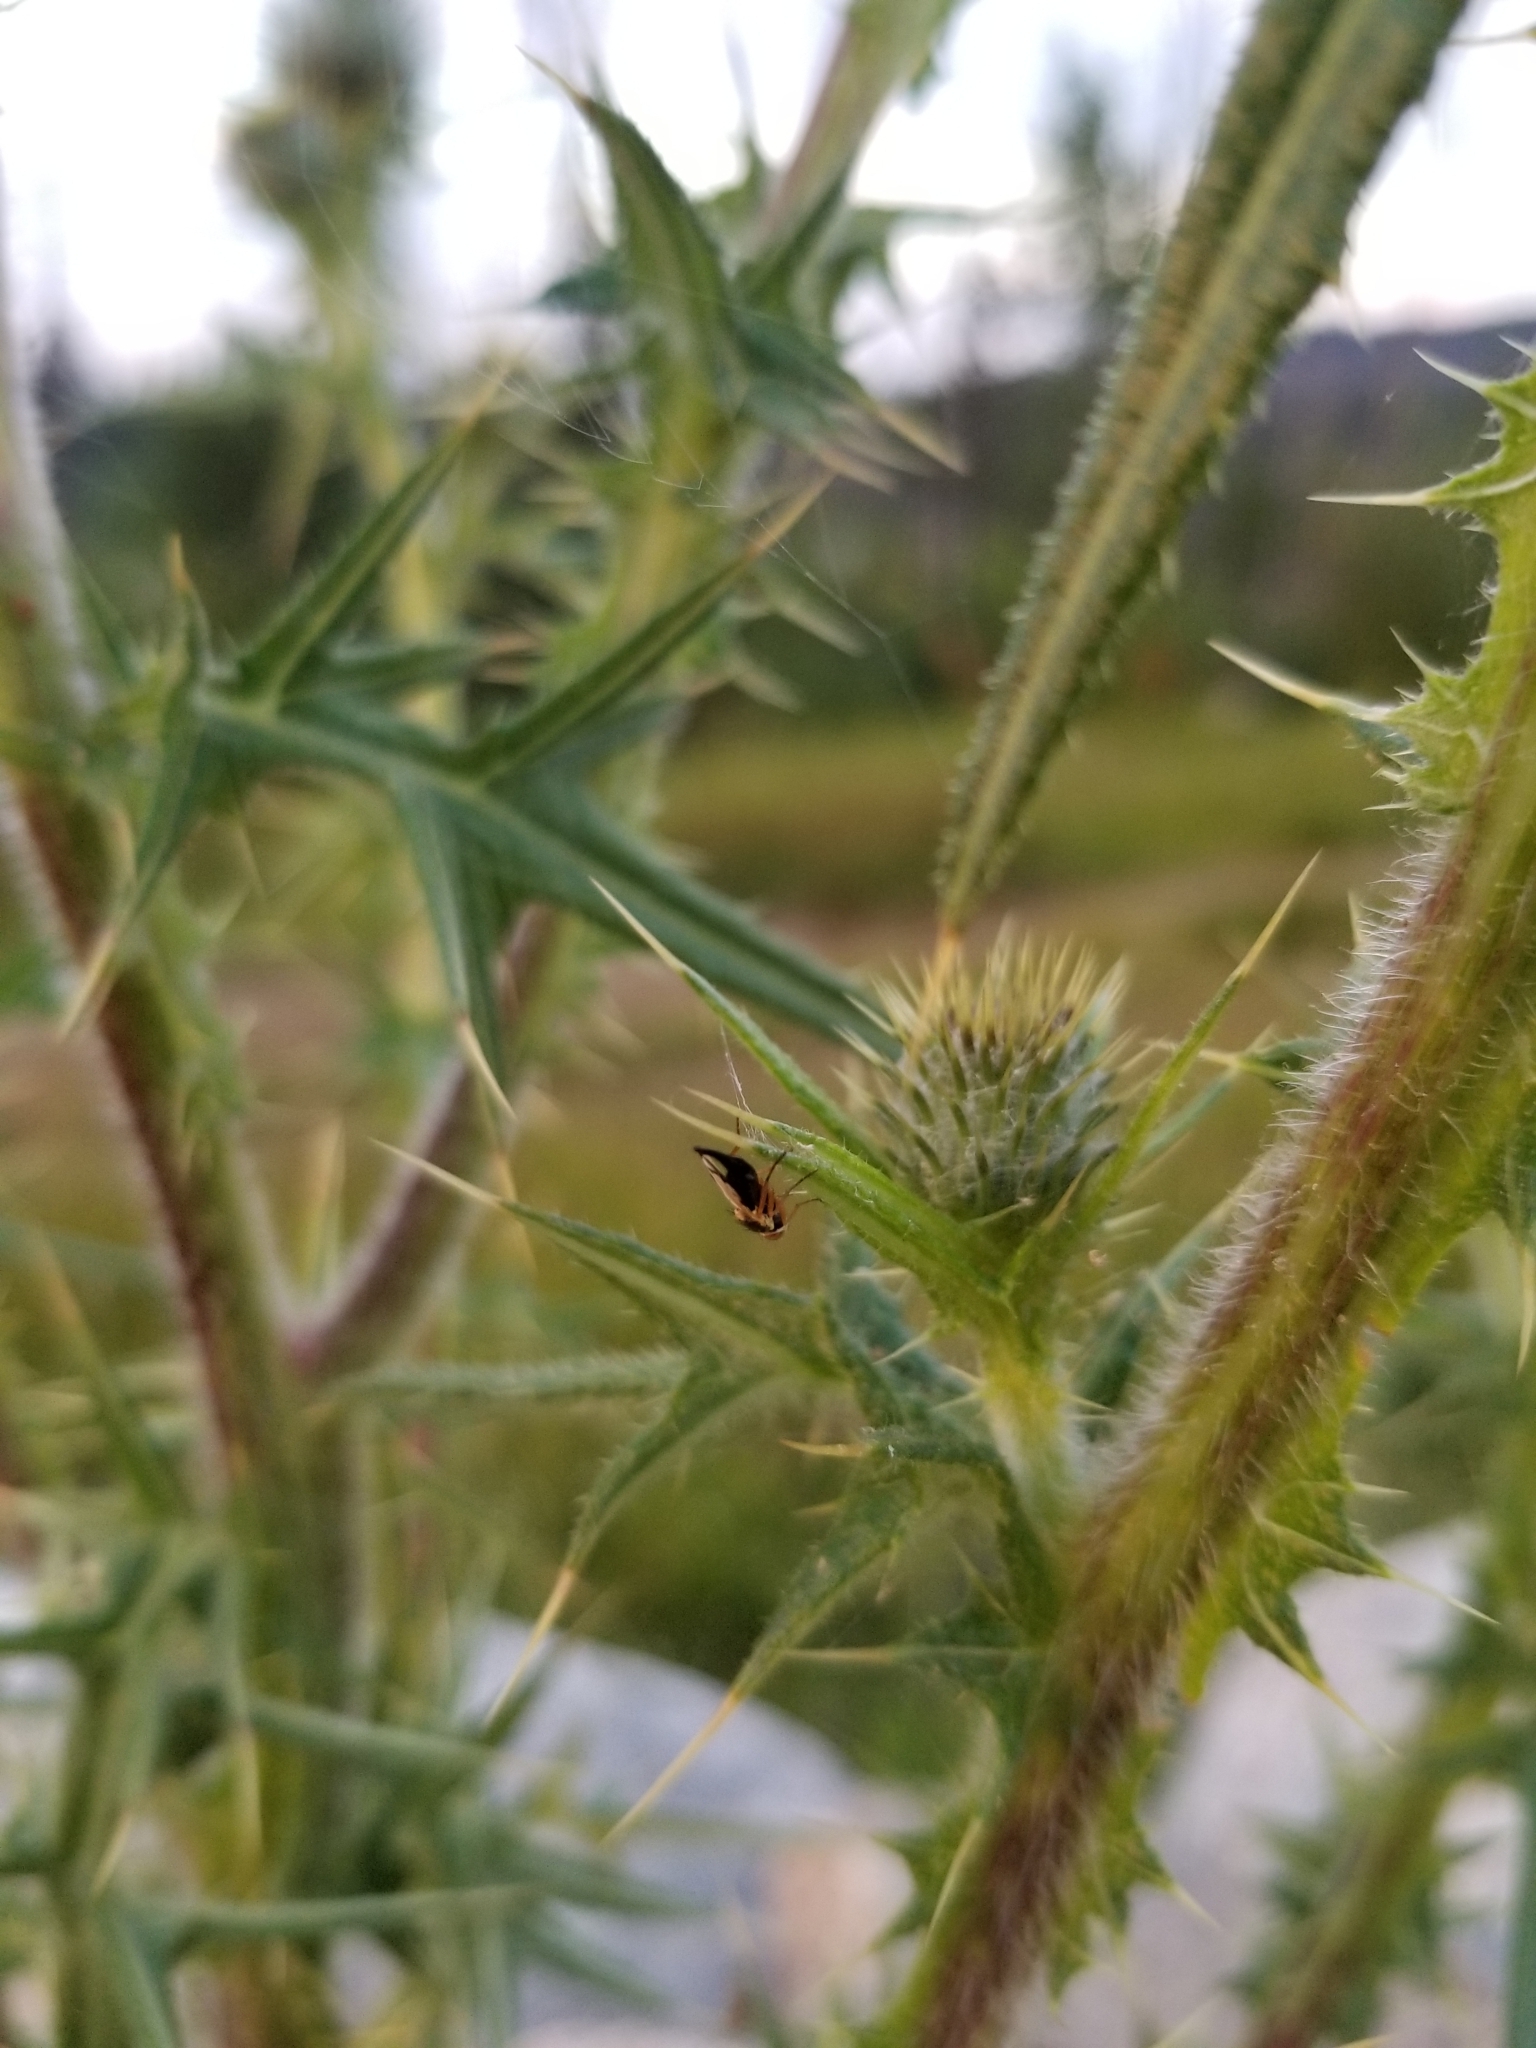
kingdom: Animalia
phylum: Arthropoda
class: Insecta
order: Diptera
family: Tephritidae
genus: Urophora
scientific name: Urophora stylata
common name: Fruit fly
